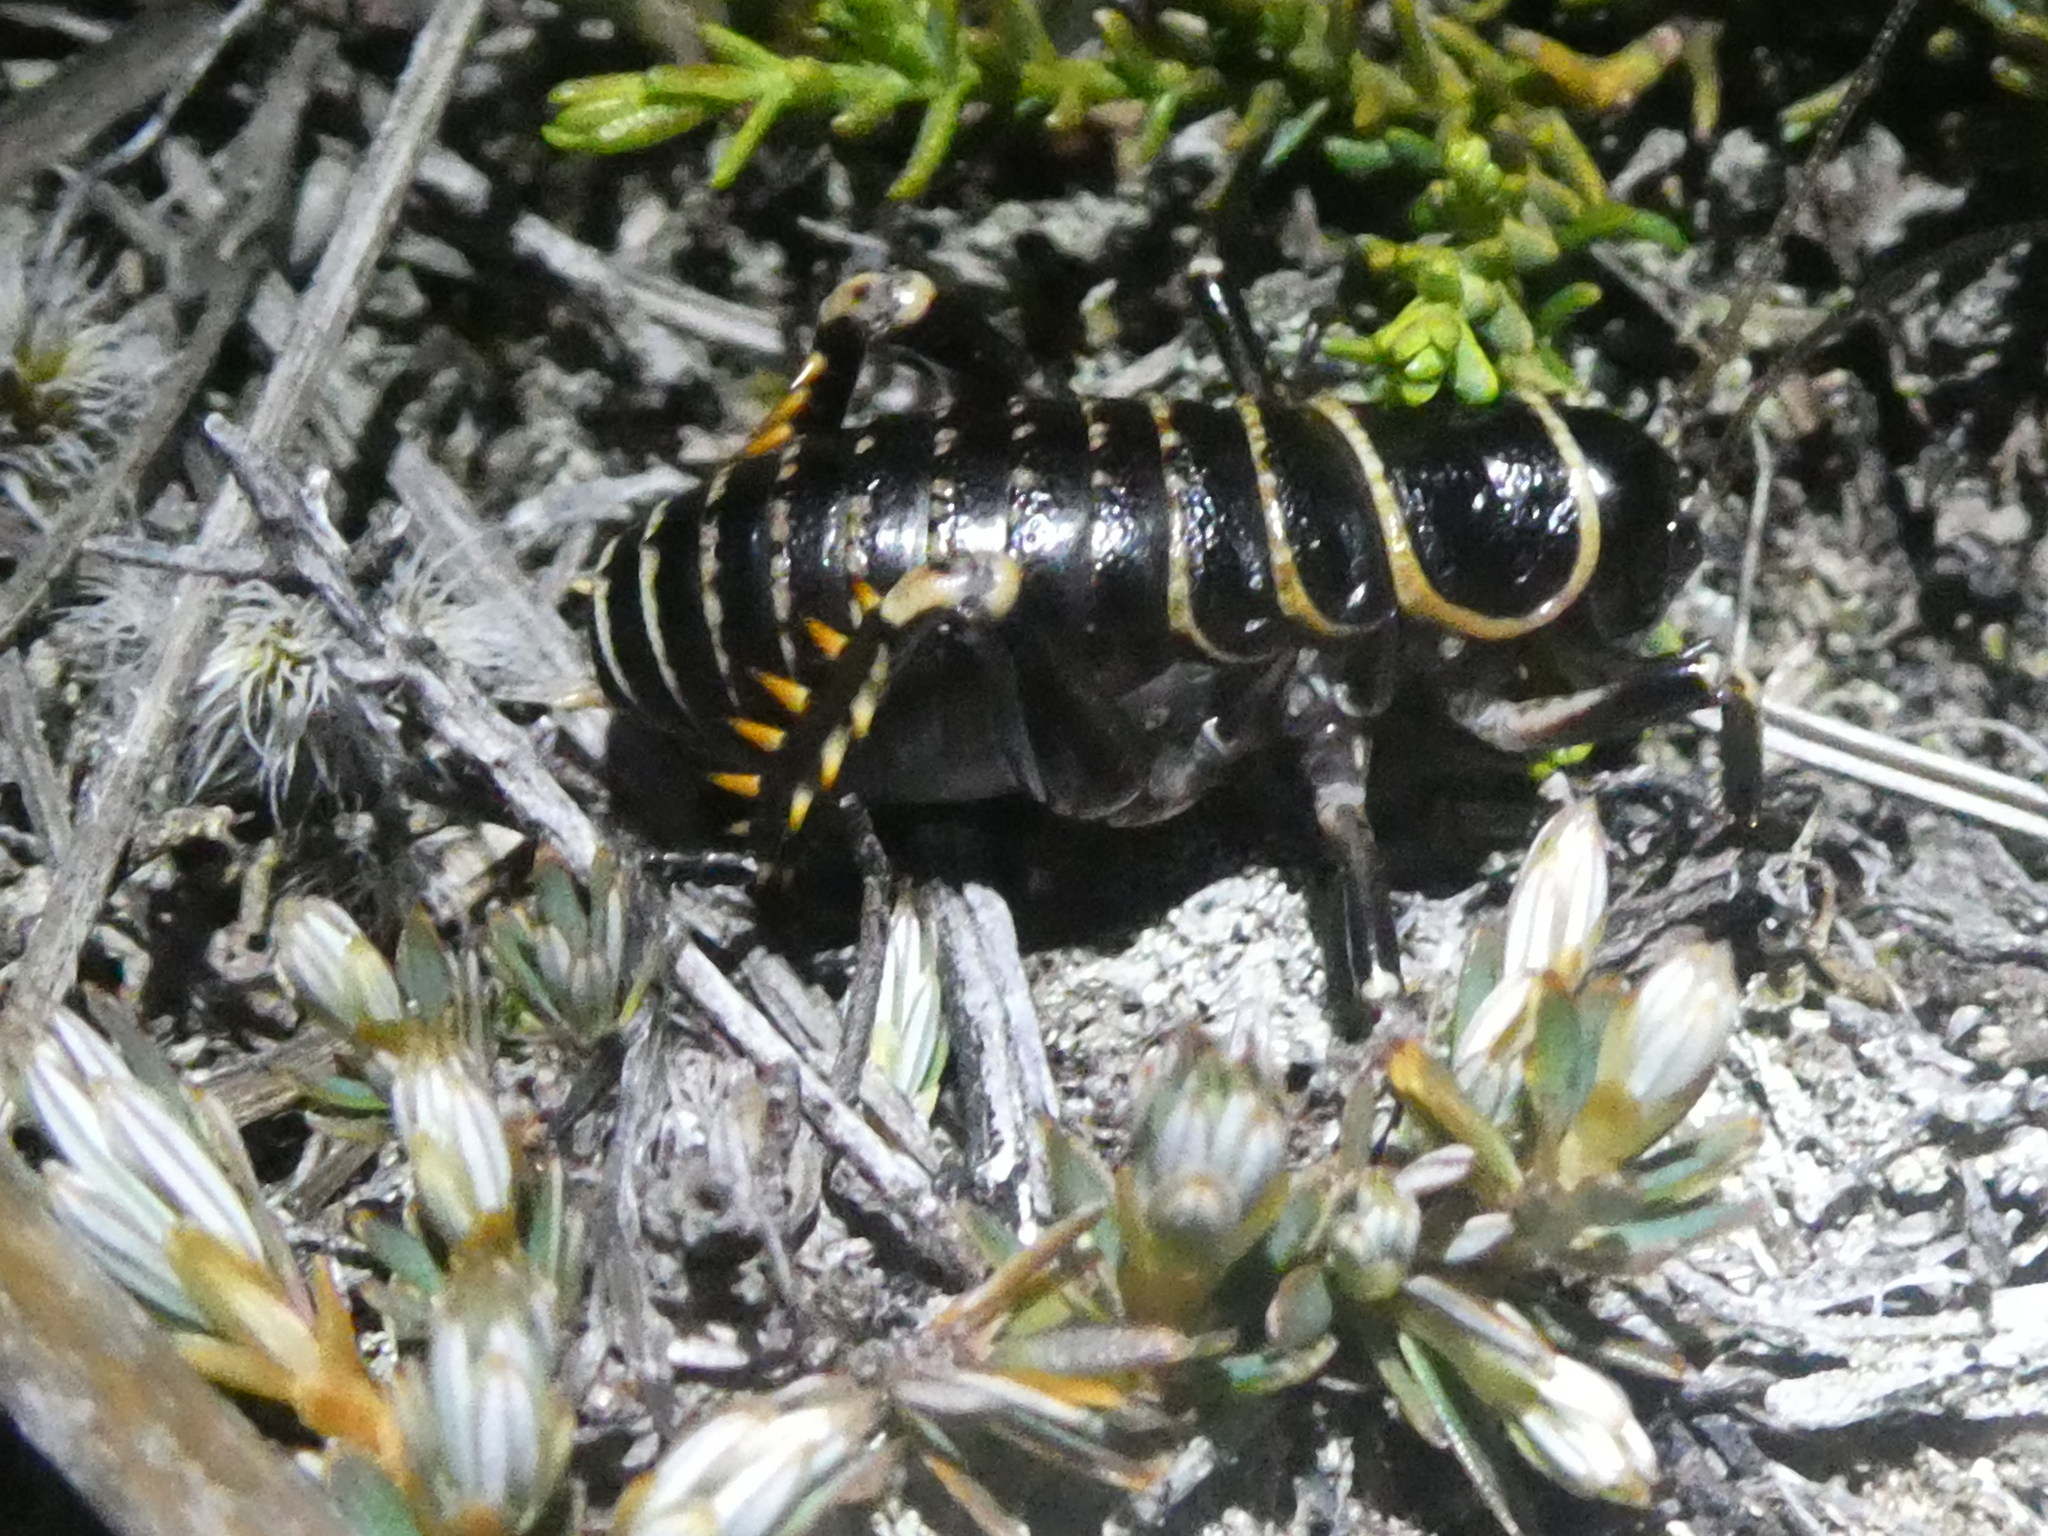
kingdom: Animalia
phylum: Arthropoda
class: Insecta
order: Orthoptera
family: Anostostomatidae
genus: Deinacrida
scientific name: Deinacrida tibiospina
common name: Mount arthur giant weta
